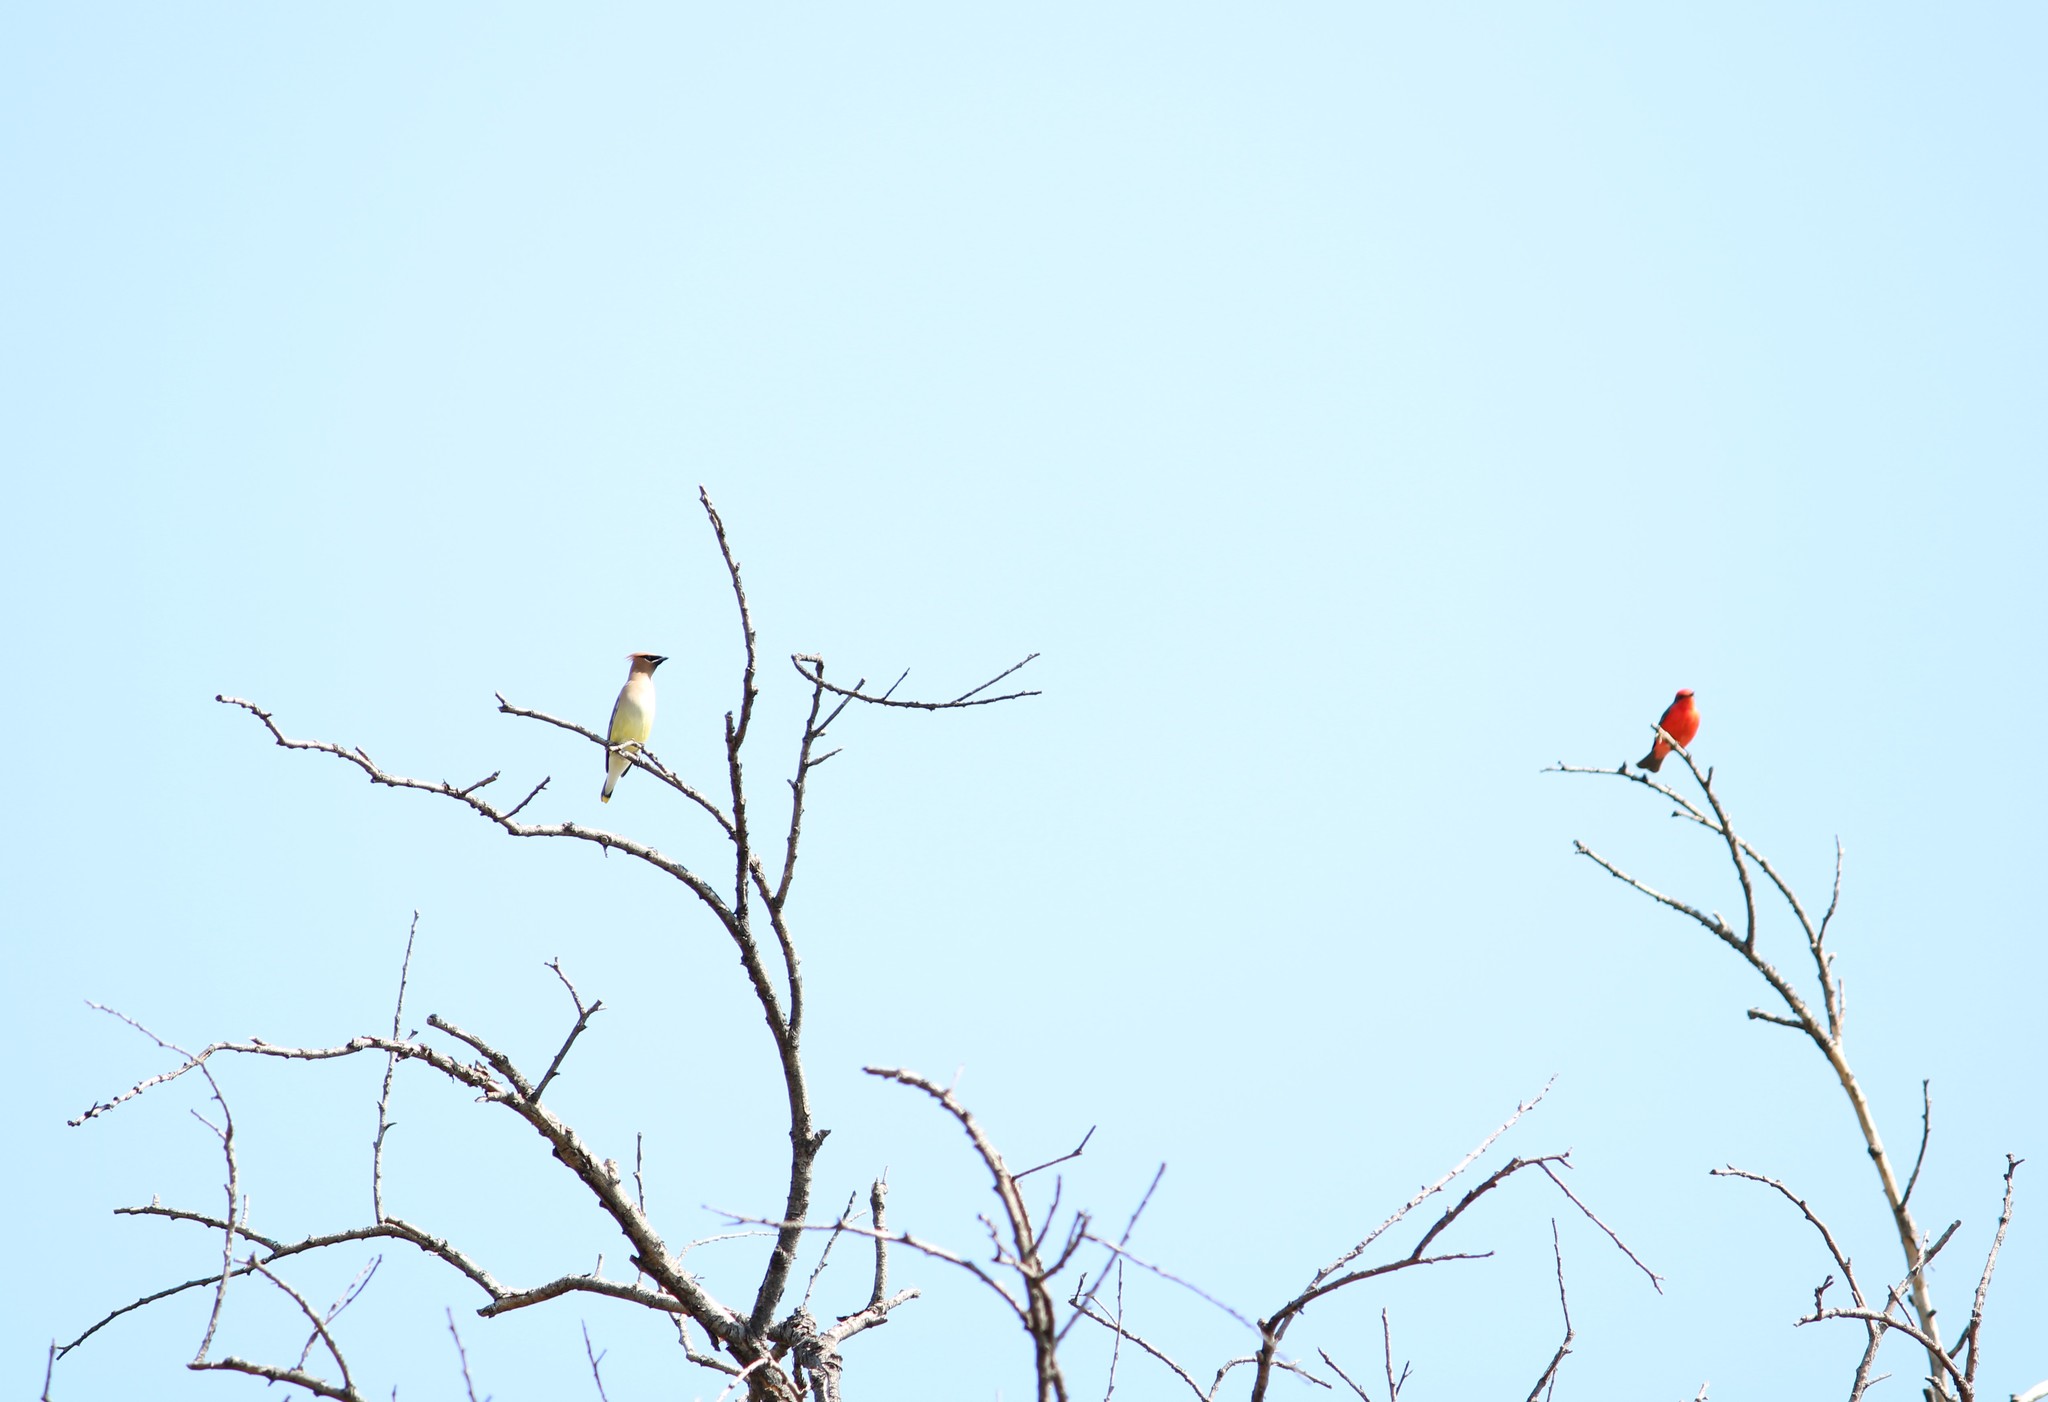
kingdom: Animalia
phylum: Chordata
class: Aves
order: Passeriformes
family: Tyrannidae
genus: Pyrocephalus
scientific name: Pyrocephalus rubinus
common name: Vermilion flycatcher
